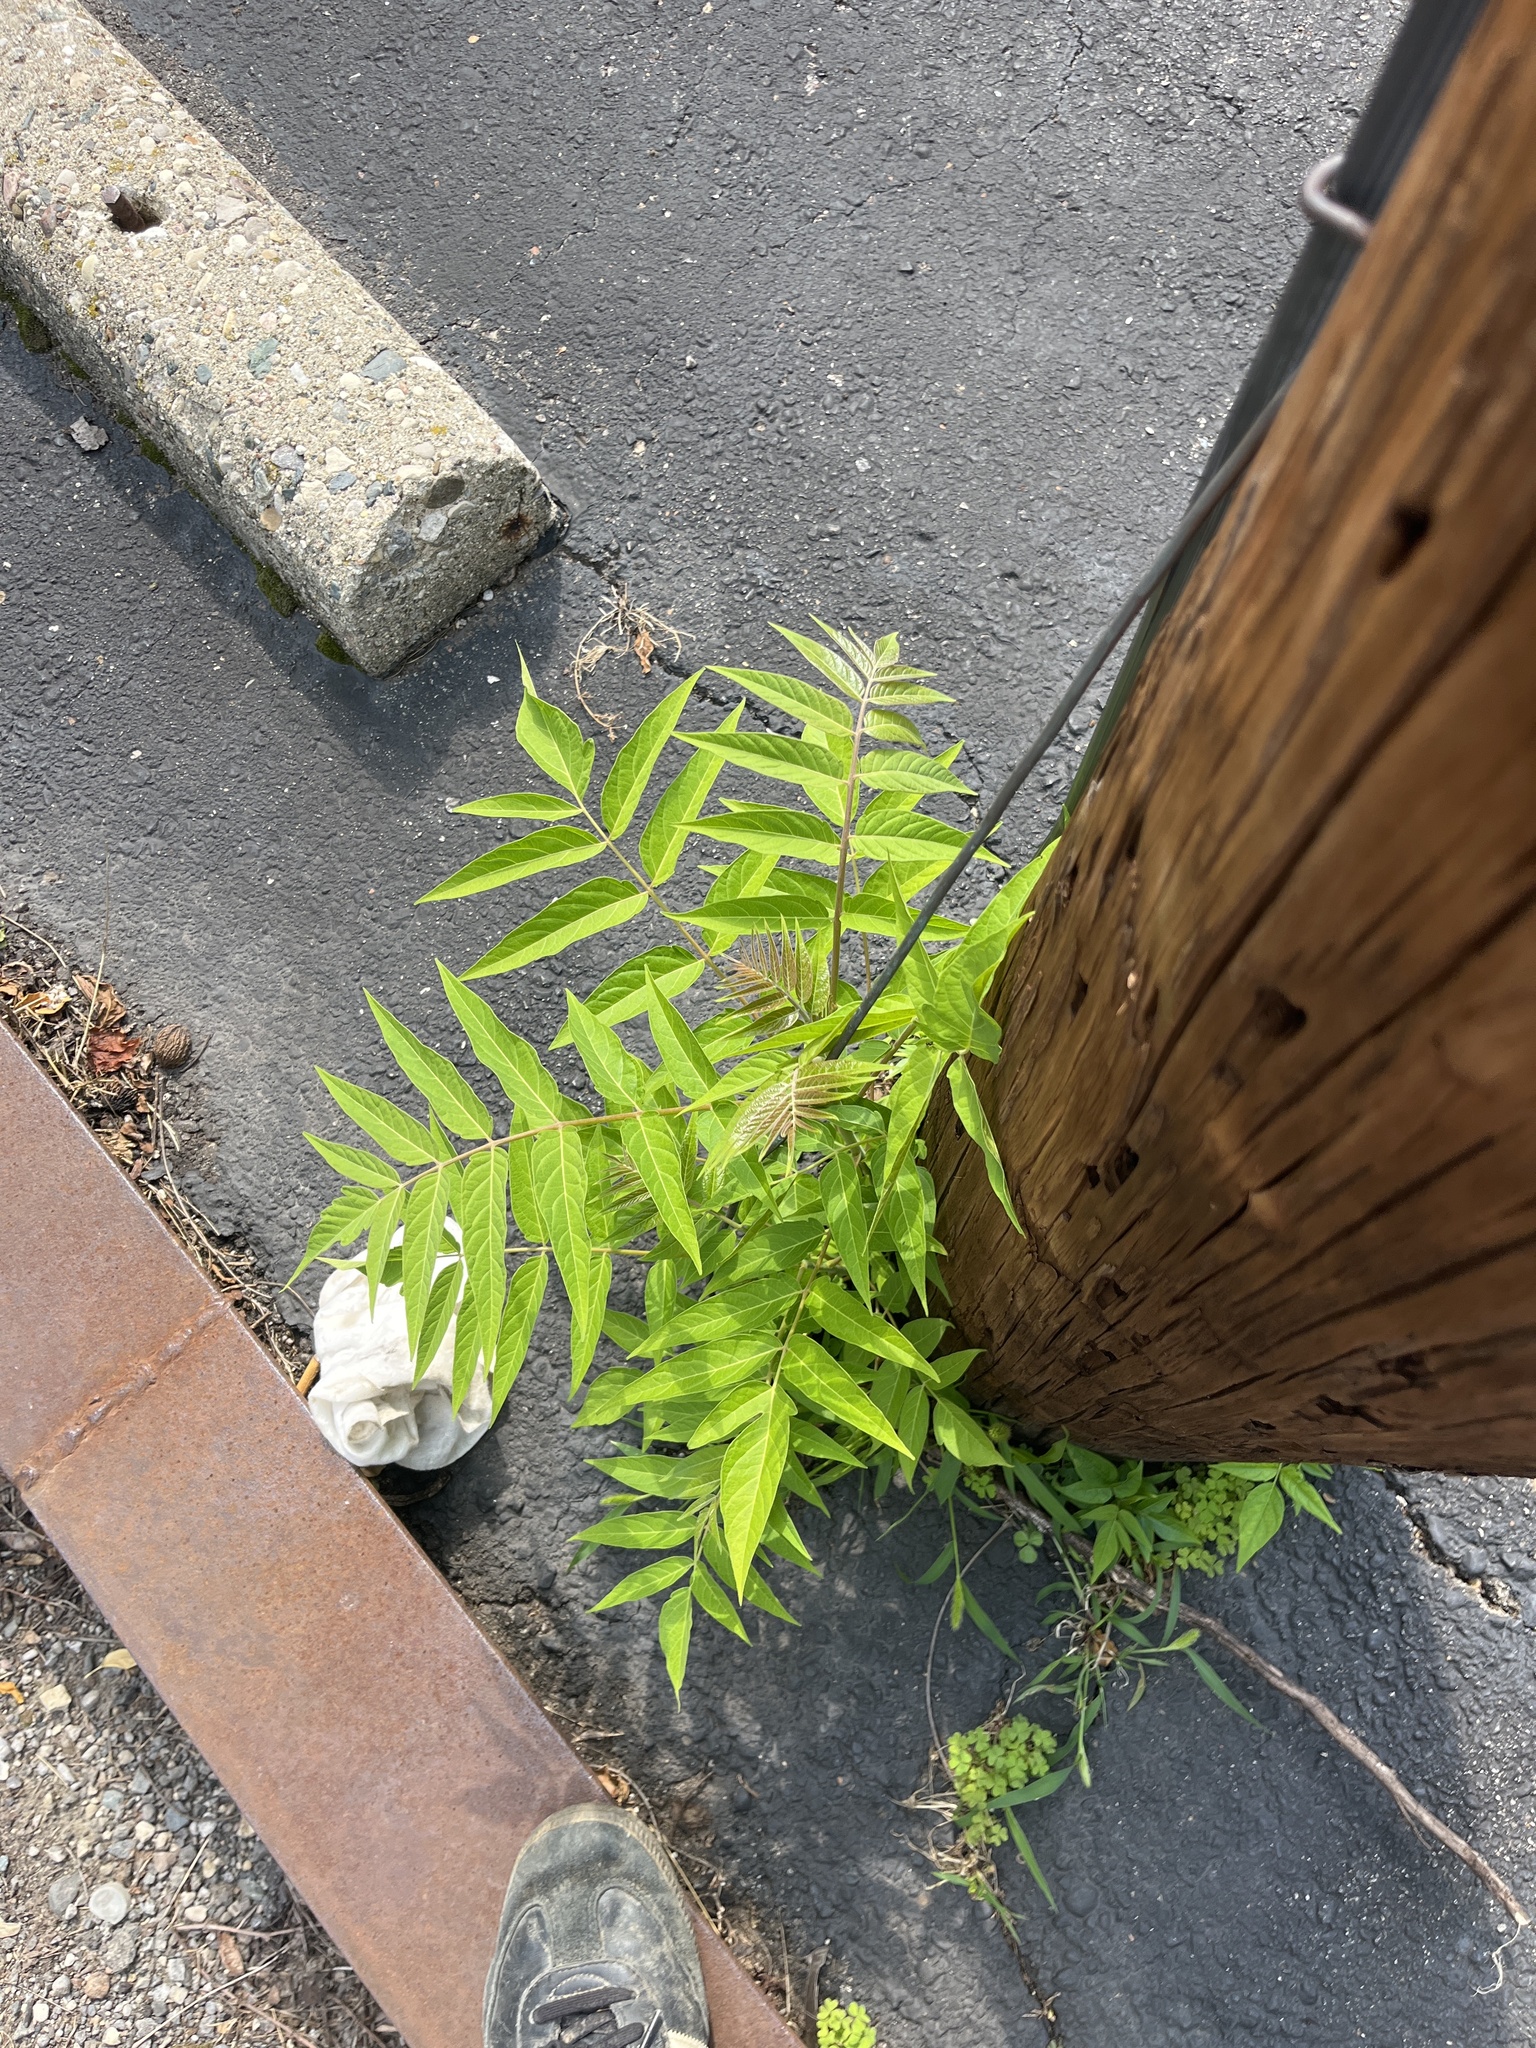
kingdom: Plantae
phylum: Tracheophyta
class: Magnoliopsida
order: Sapindales
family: Simaroubaceae
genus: Ailanthus
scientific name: Ailanthus altissima
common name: Tree-of-heaven
